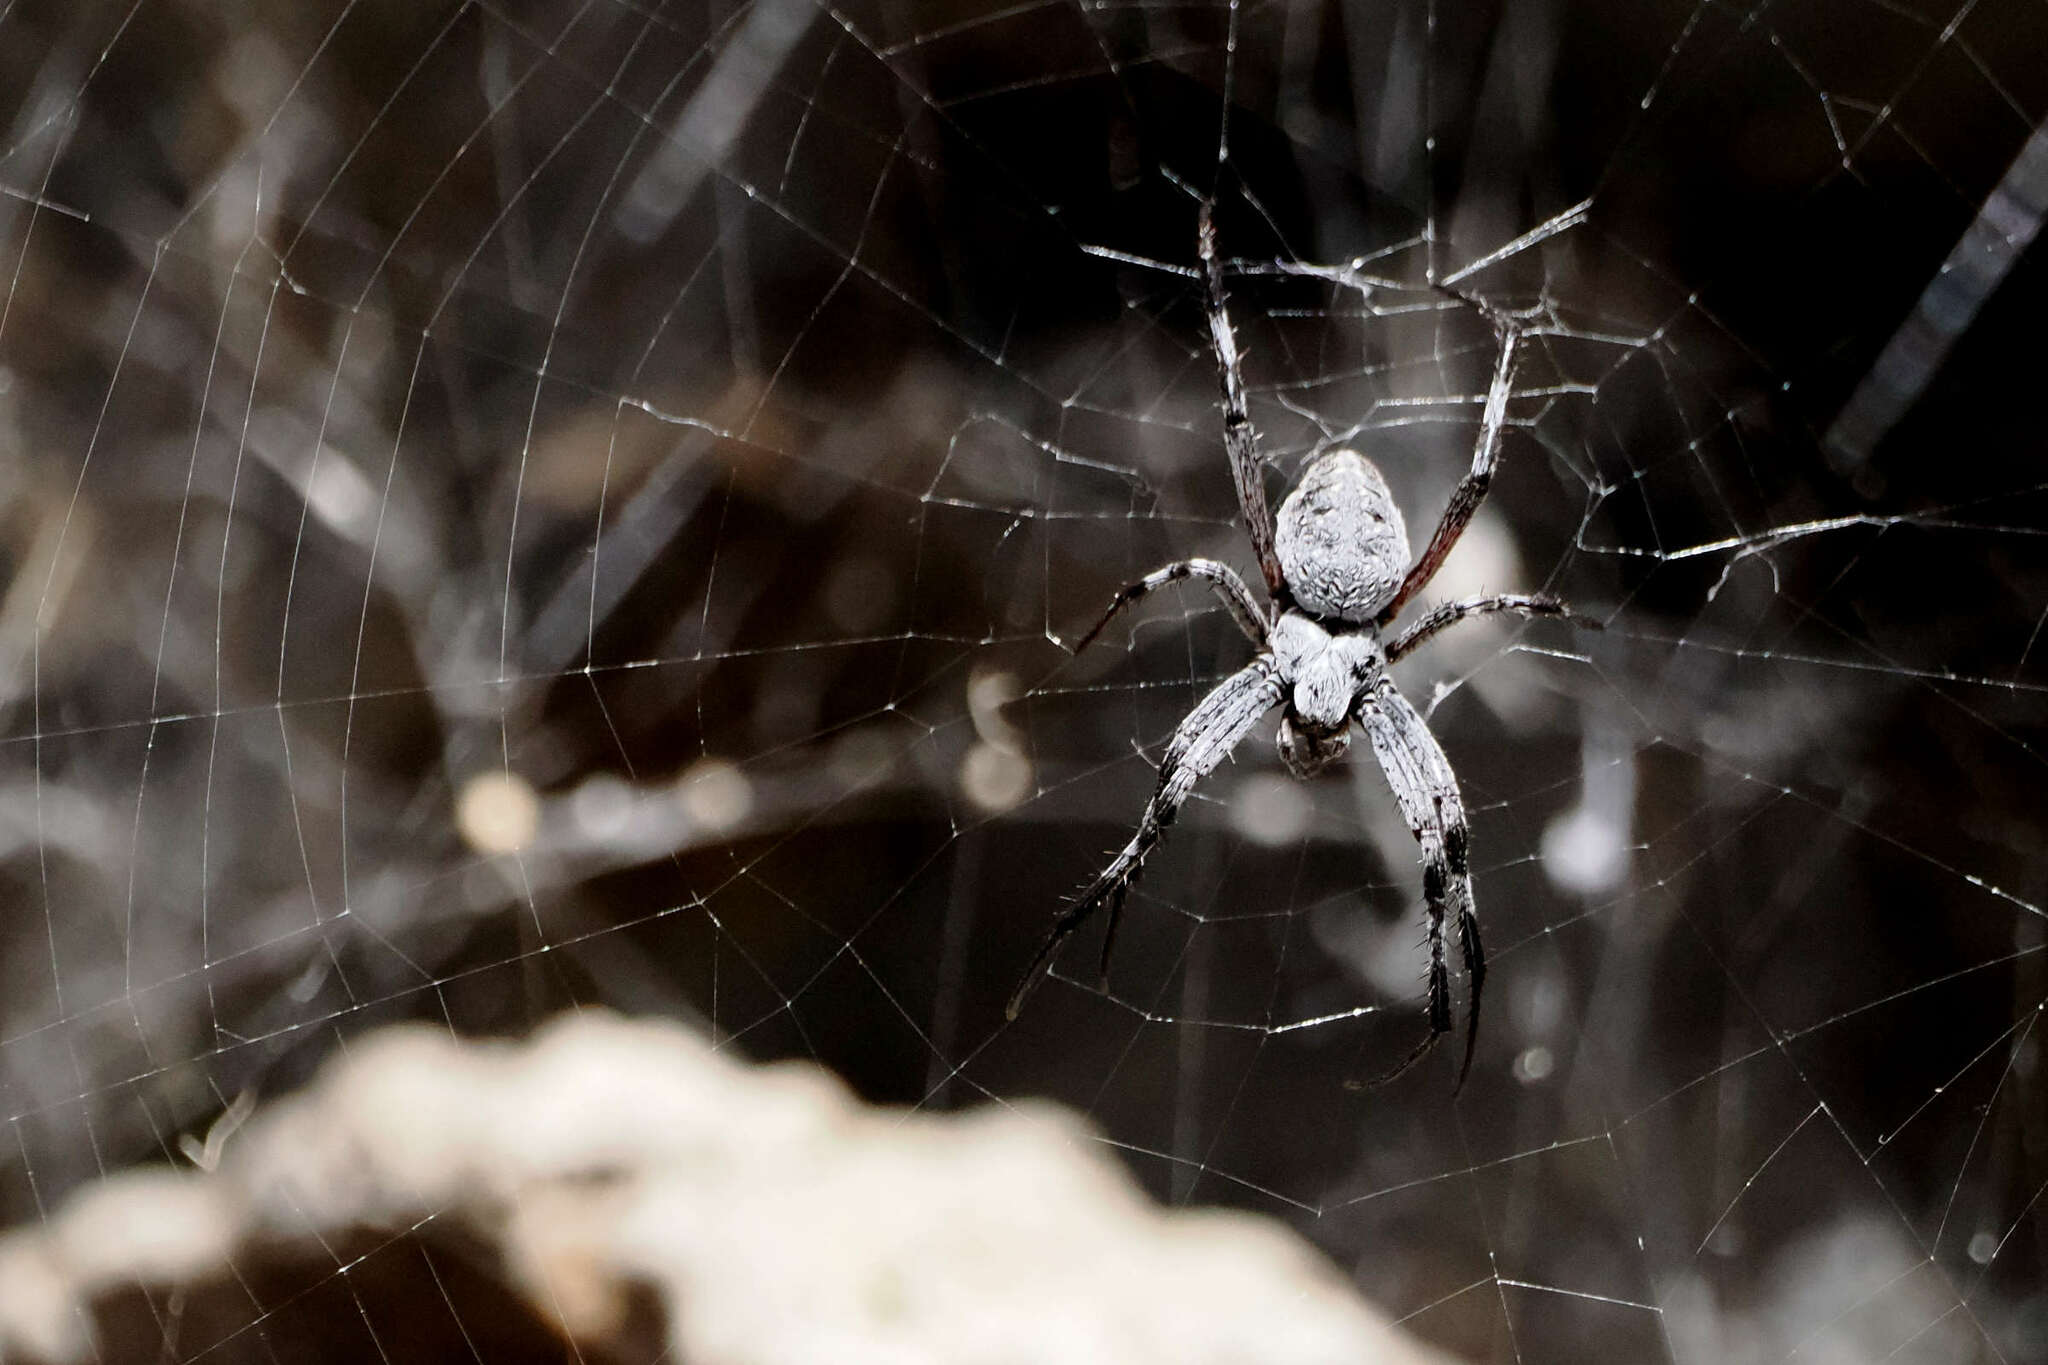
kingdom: Animalia
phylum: Arthropoda
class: Arachnida
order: Araneae
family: Araneidae
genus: Neoscona
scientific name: Neoscona oaxacensis
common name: Orb weavers
